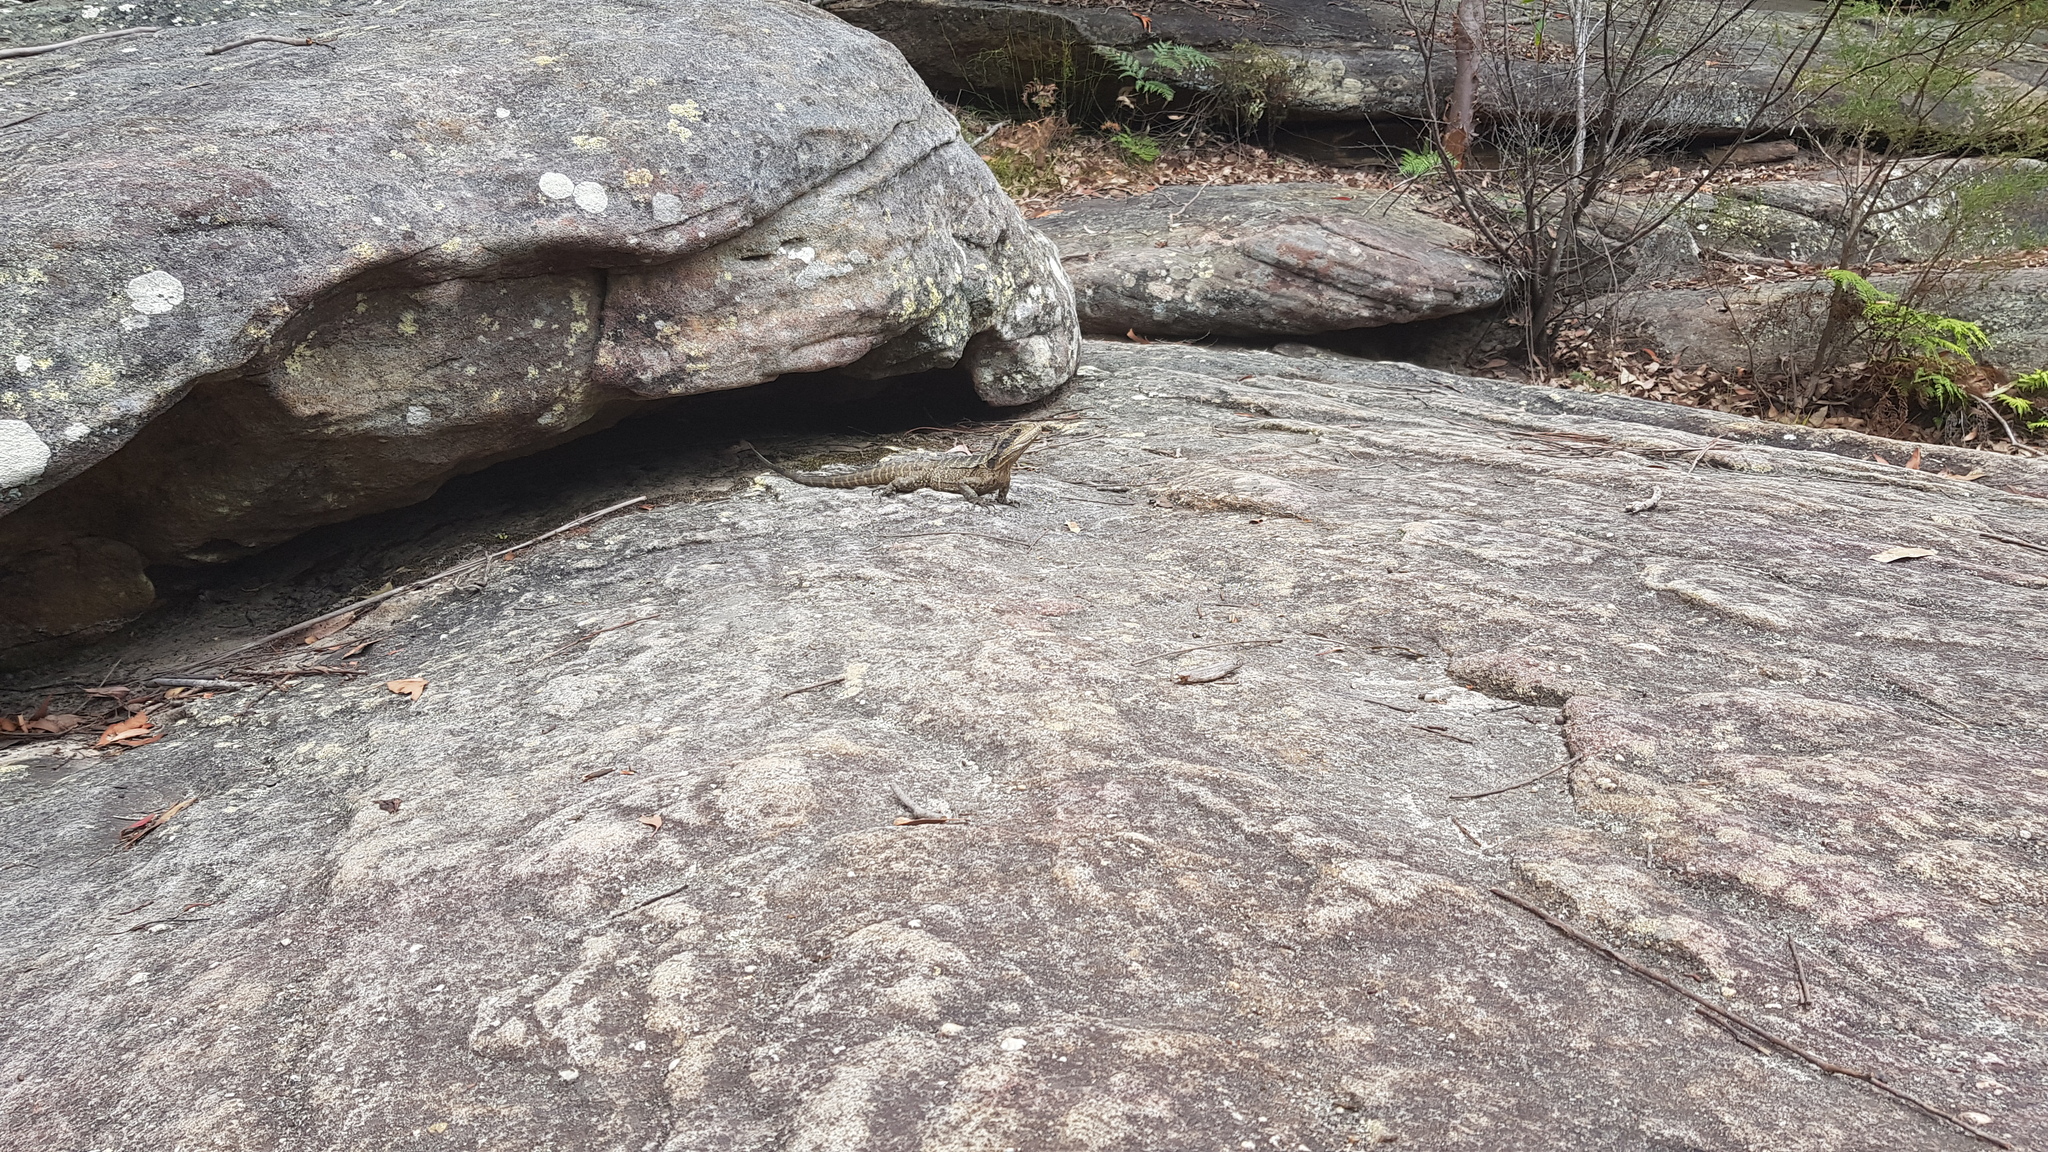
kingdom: Animalia
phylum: Chordata
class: Squamata
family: Agamidae
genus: Intellagama
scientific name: Intellagama lesueurii
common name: Eastern water dragon
